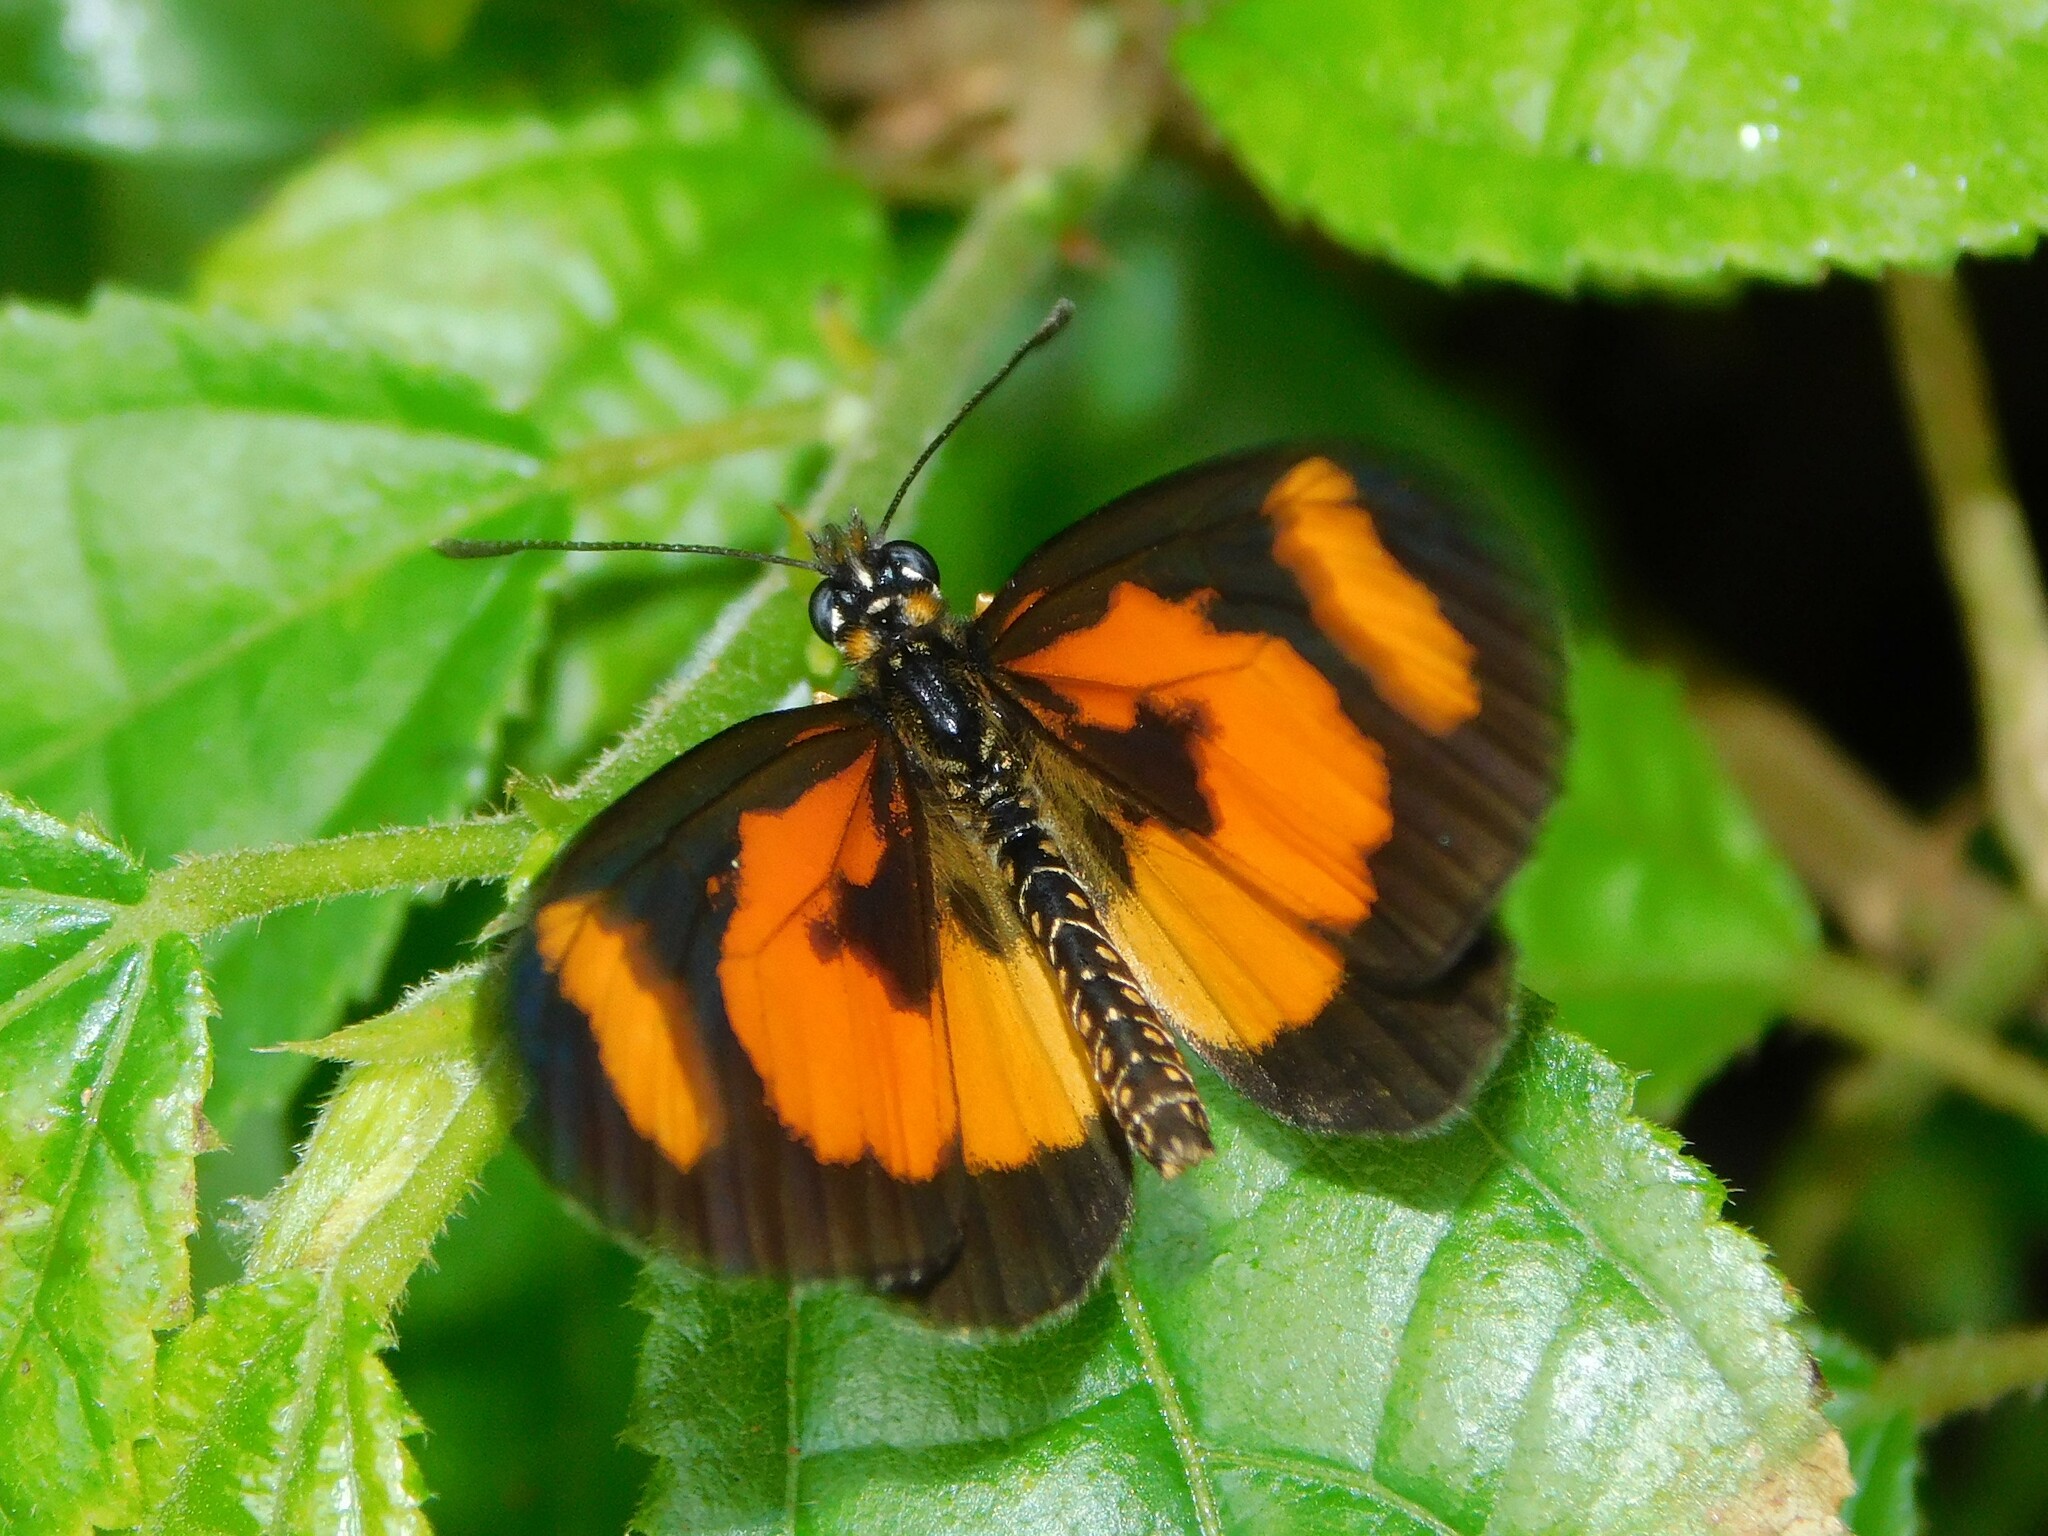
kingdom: Animalia
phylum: Arthropoda
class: Insecta
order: Lepidoptera
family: Nymphalidae
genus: Acraea
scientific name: Acraea Telchinia bonasia
